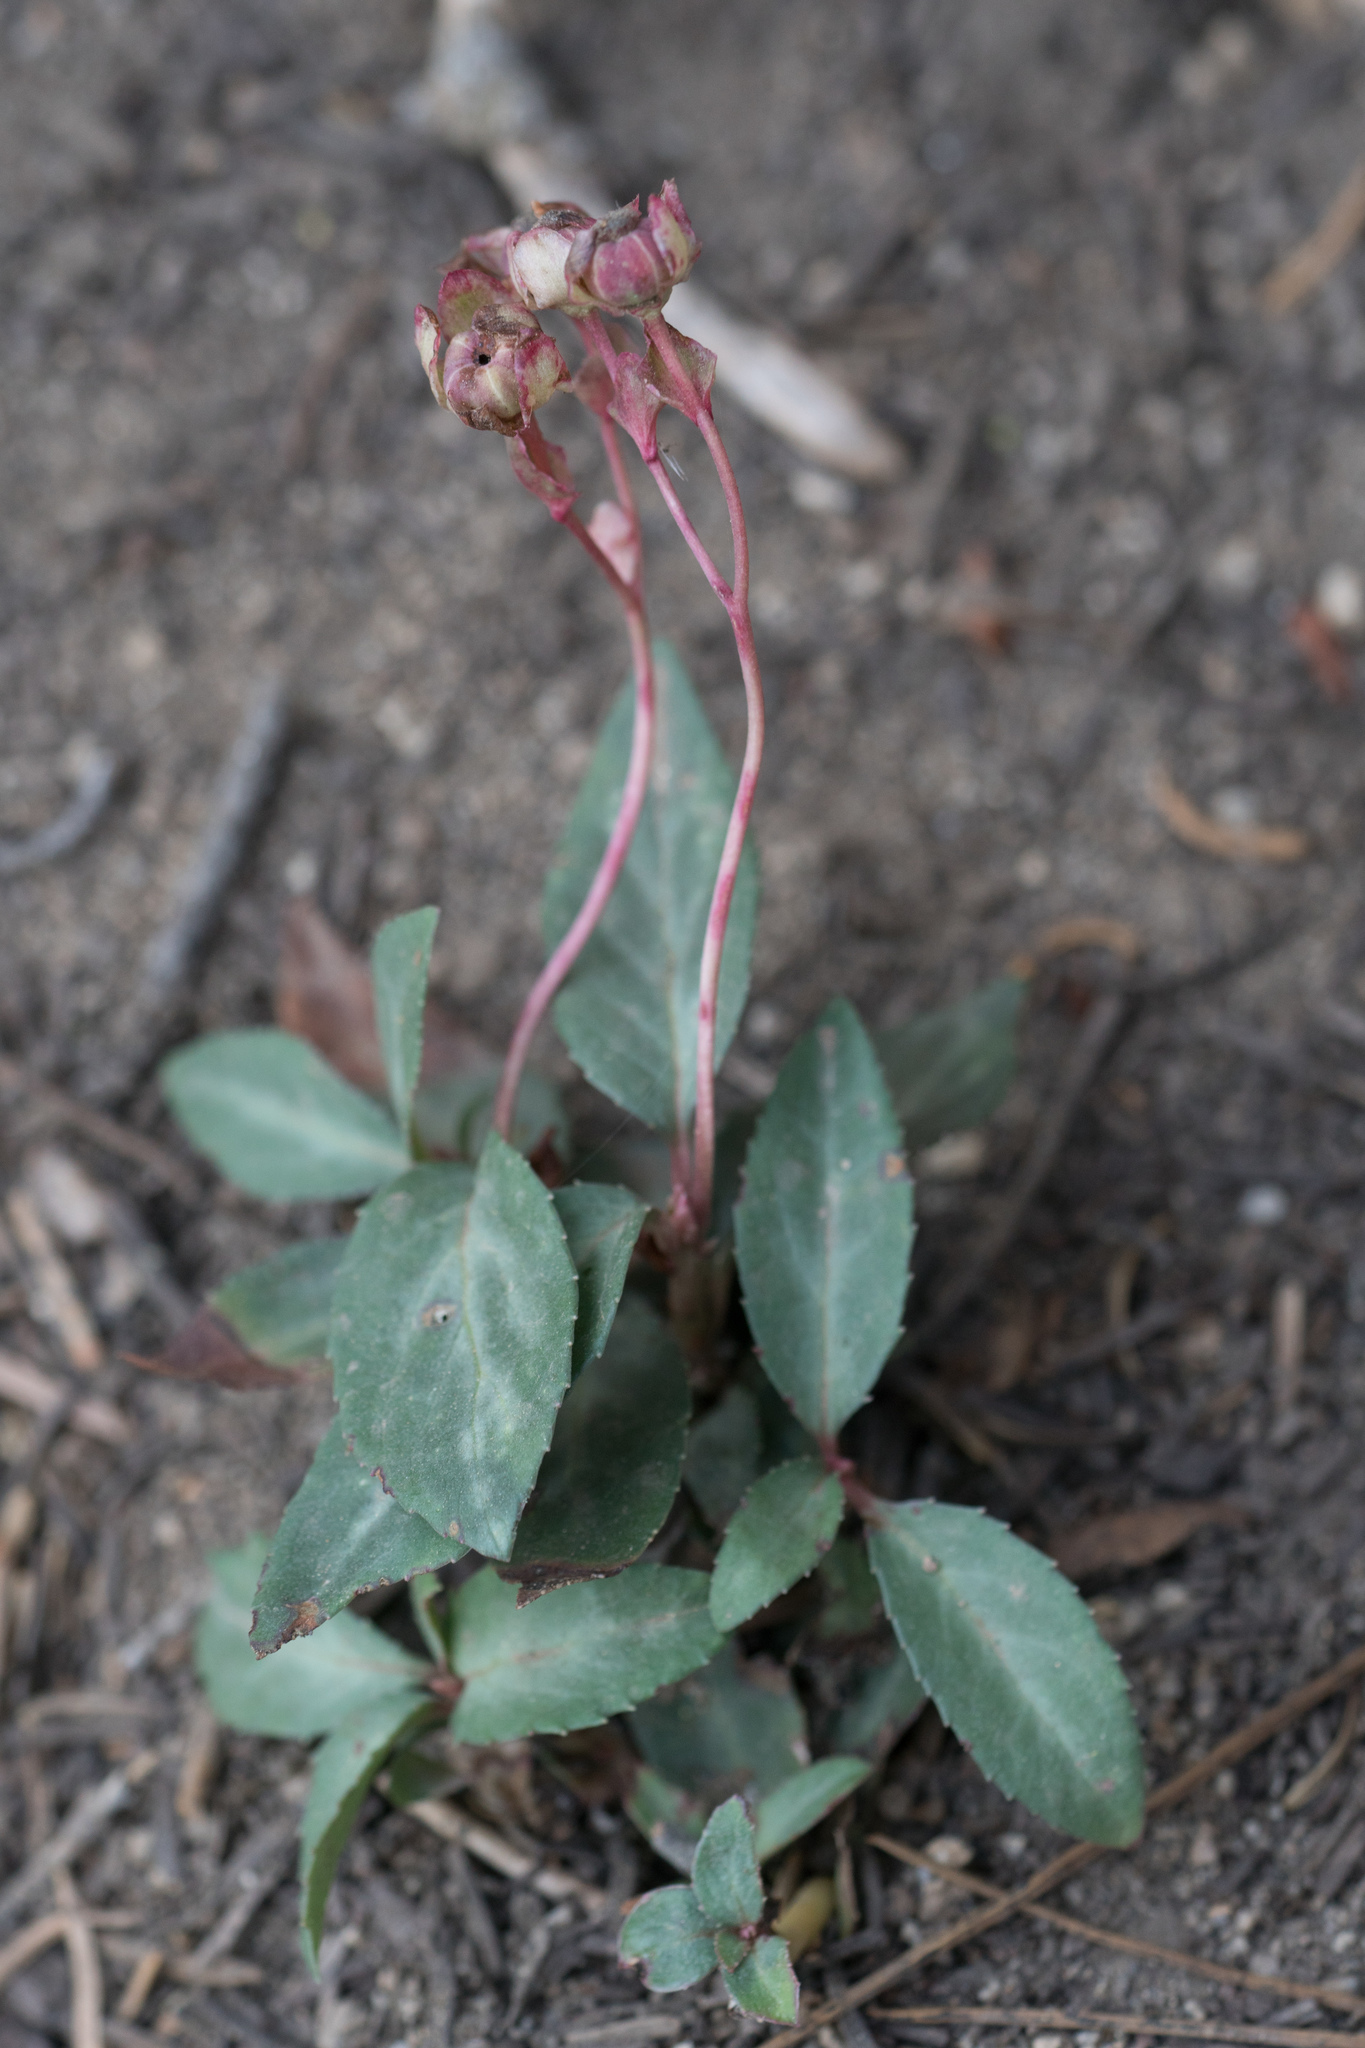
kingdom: Plantae
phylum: Tracheophyta
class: Magnoliopsida
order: Ericales
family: Ericaceae
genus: Chimaphila
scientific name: Chimaphila menziesii
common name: Menzies' pipsissewa
